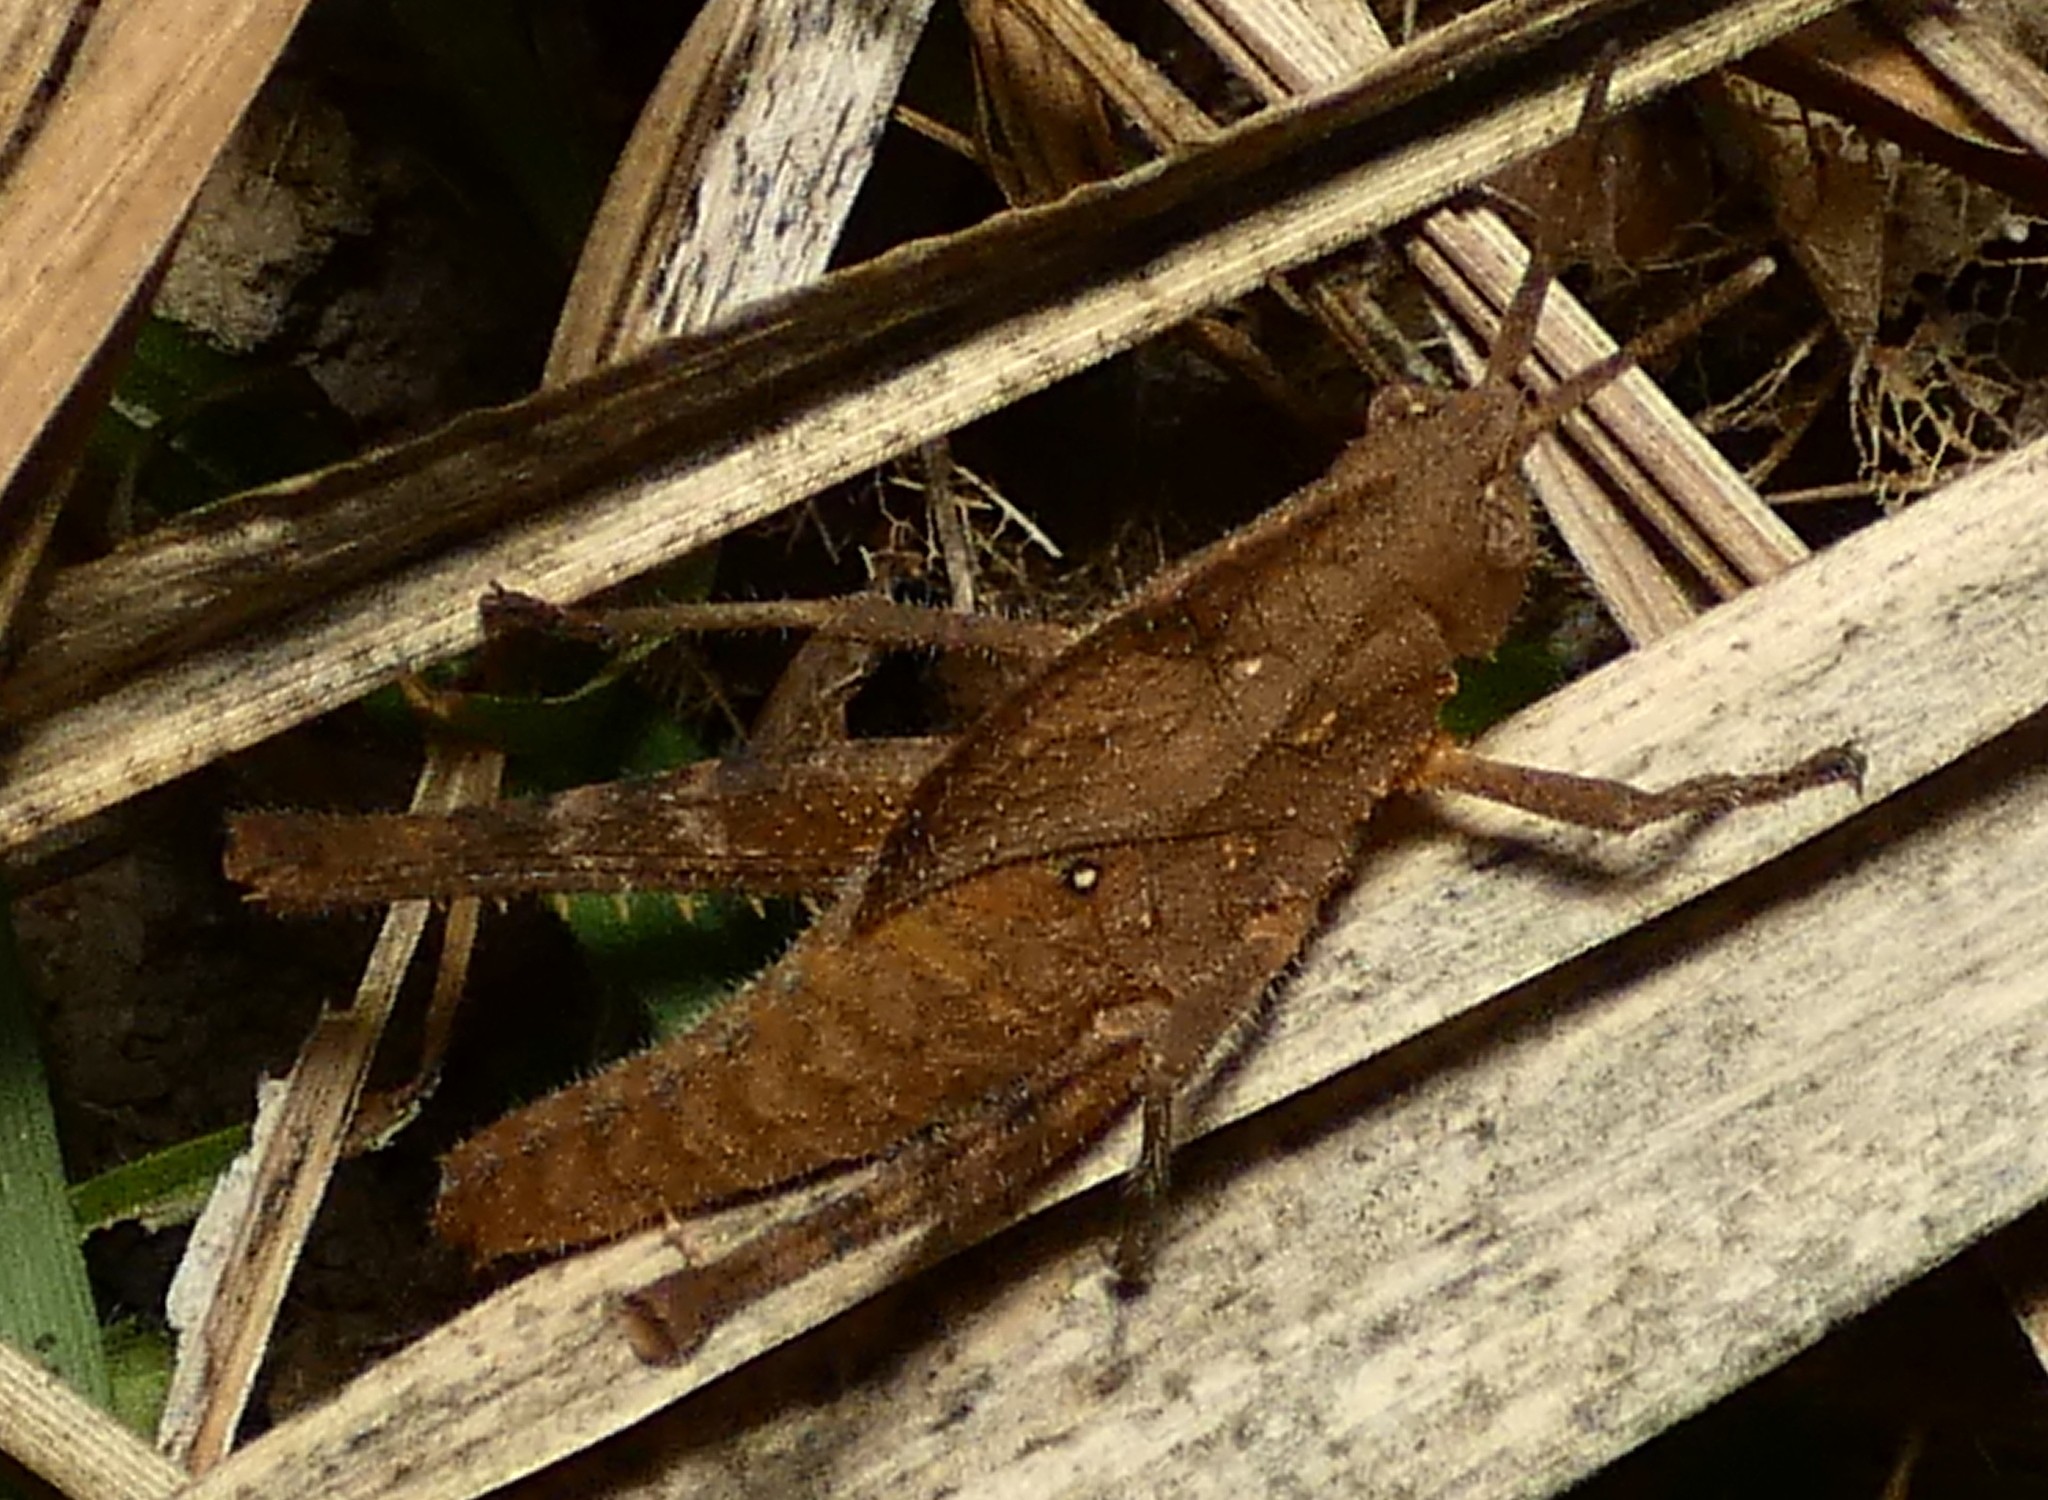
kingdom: Animalia
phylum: Arthropoda
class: Insecta
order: Orthoptera
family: Romaleidae
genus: Xyleus
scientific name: Xyleus discoideus
